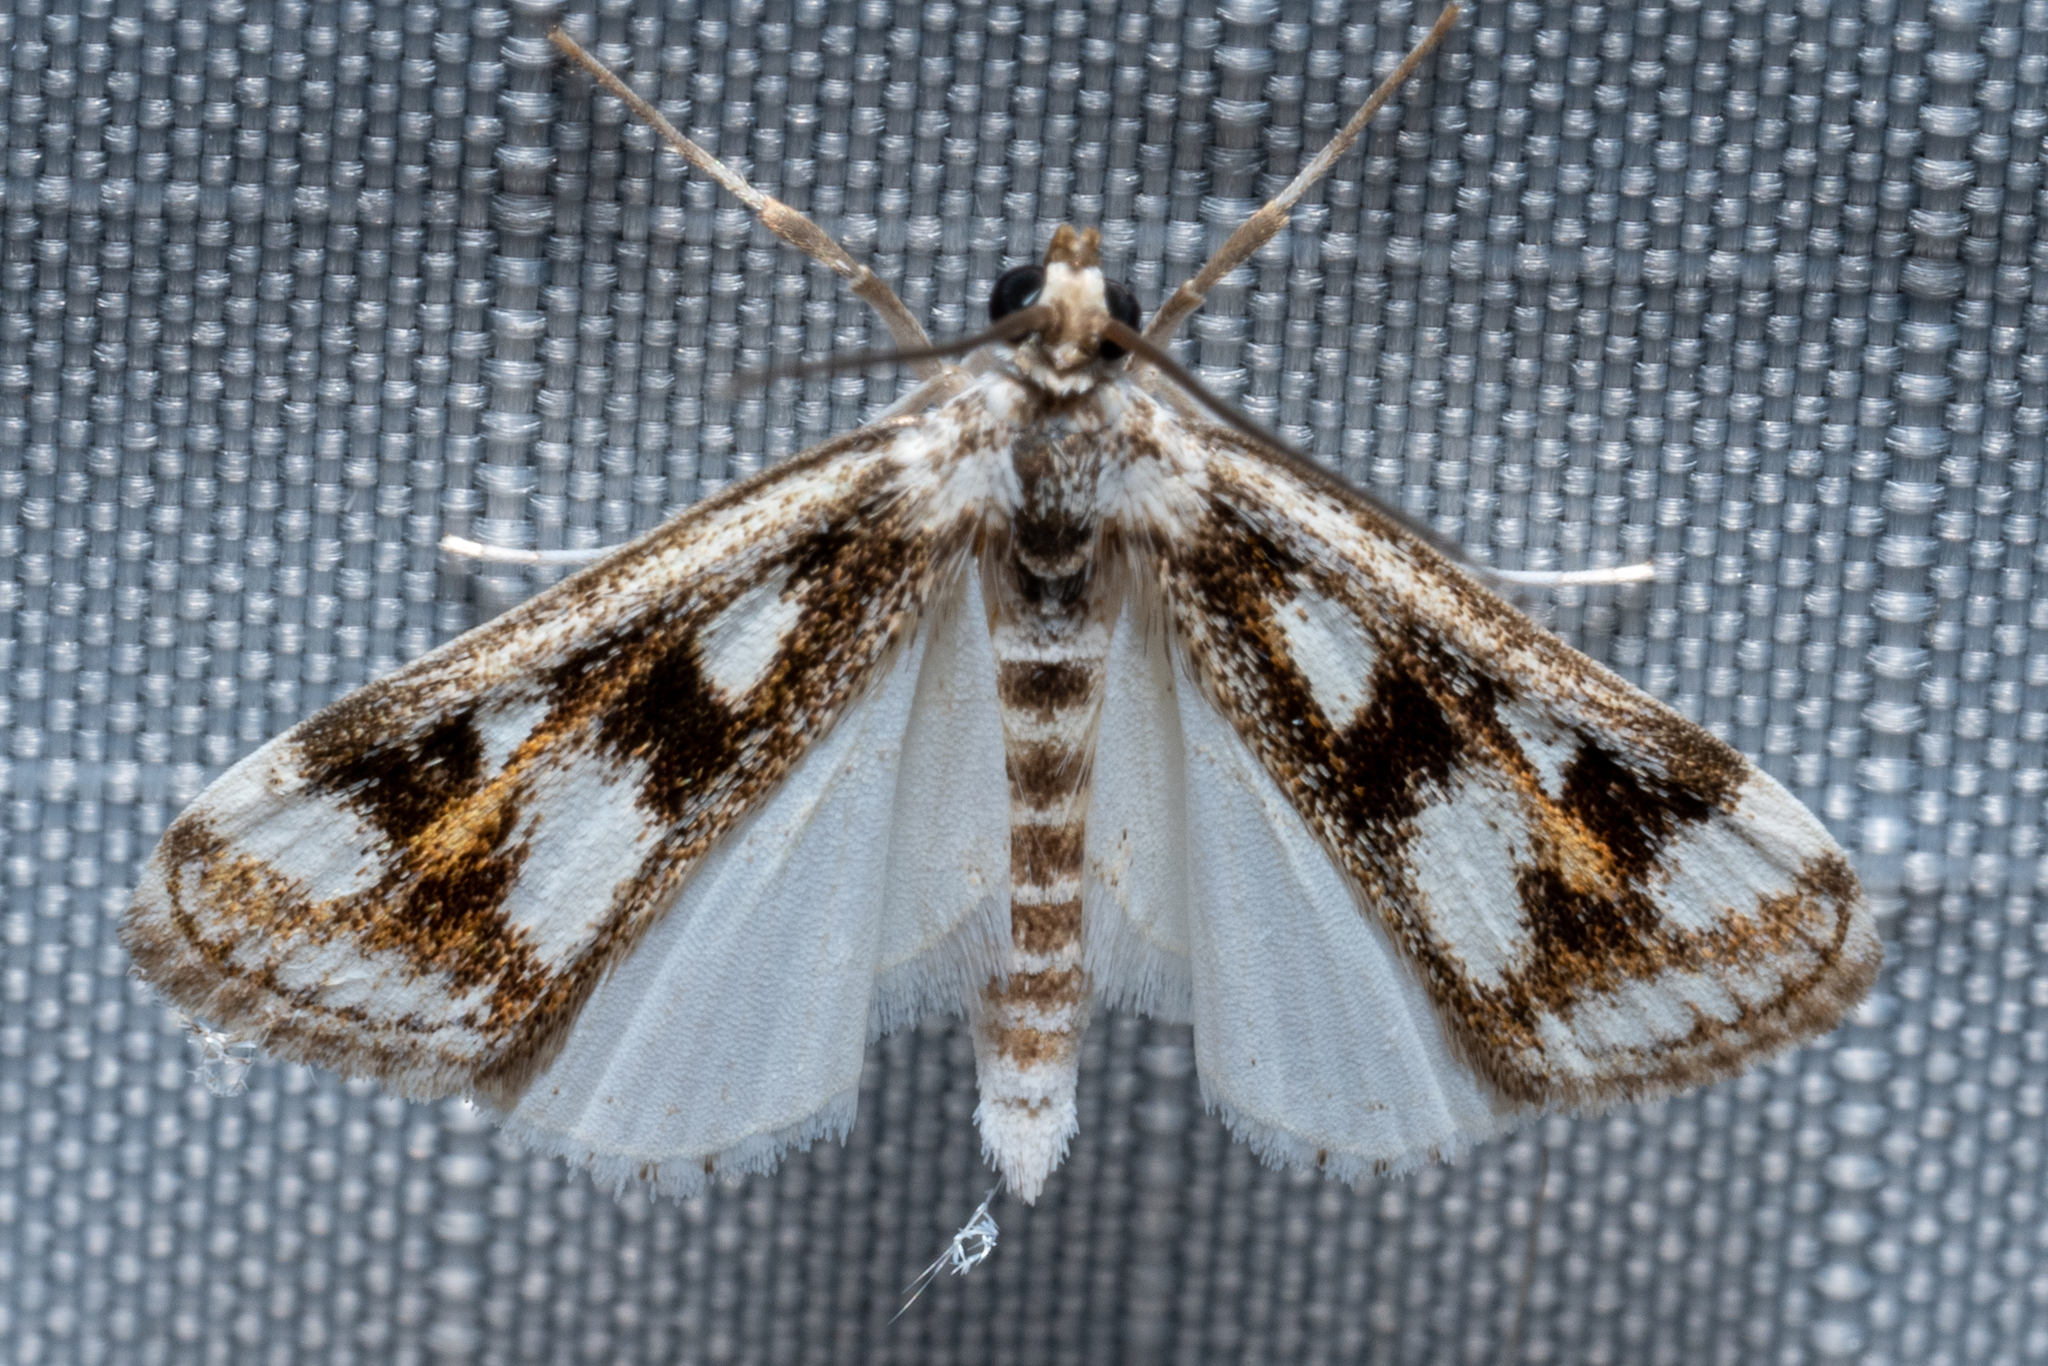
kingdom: Animalia
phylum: Arthropoda
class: Insecta
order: Lepidoptera
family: Crambidae
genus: Parapoynx
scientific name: Parapoynx maculalis
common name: Polymorphic pondweed moth
